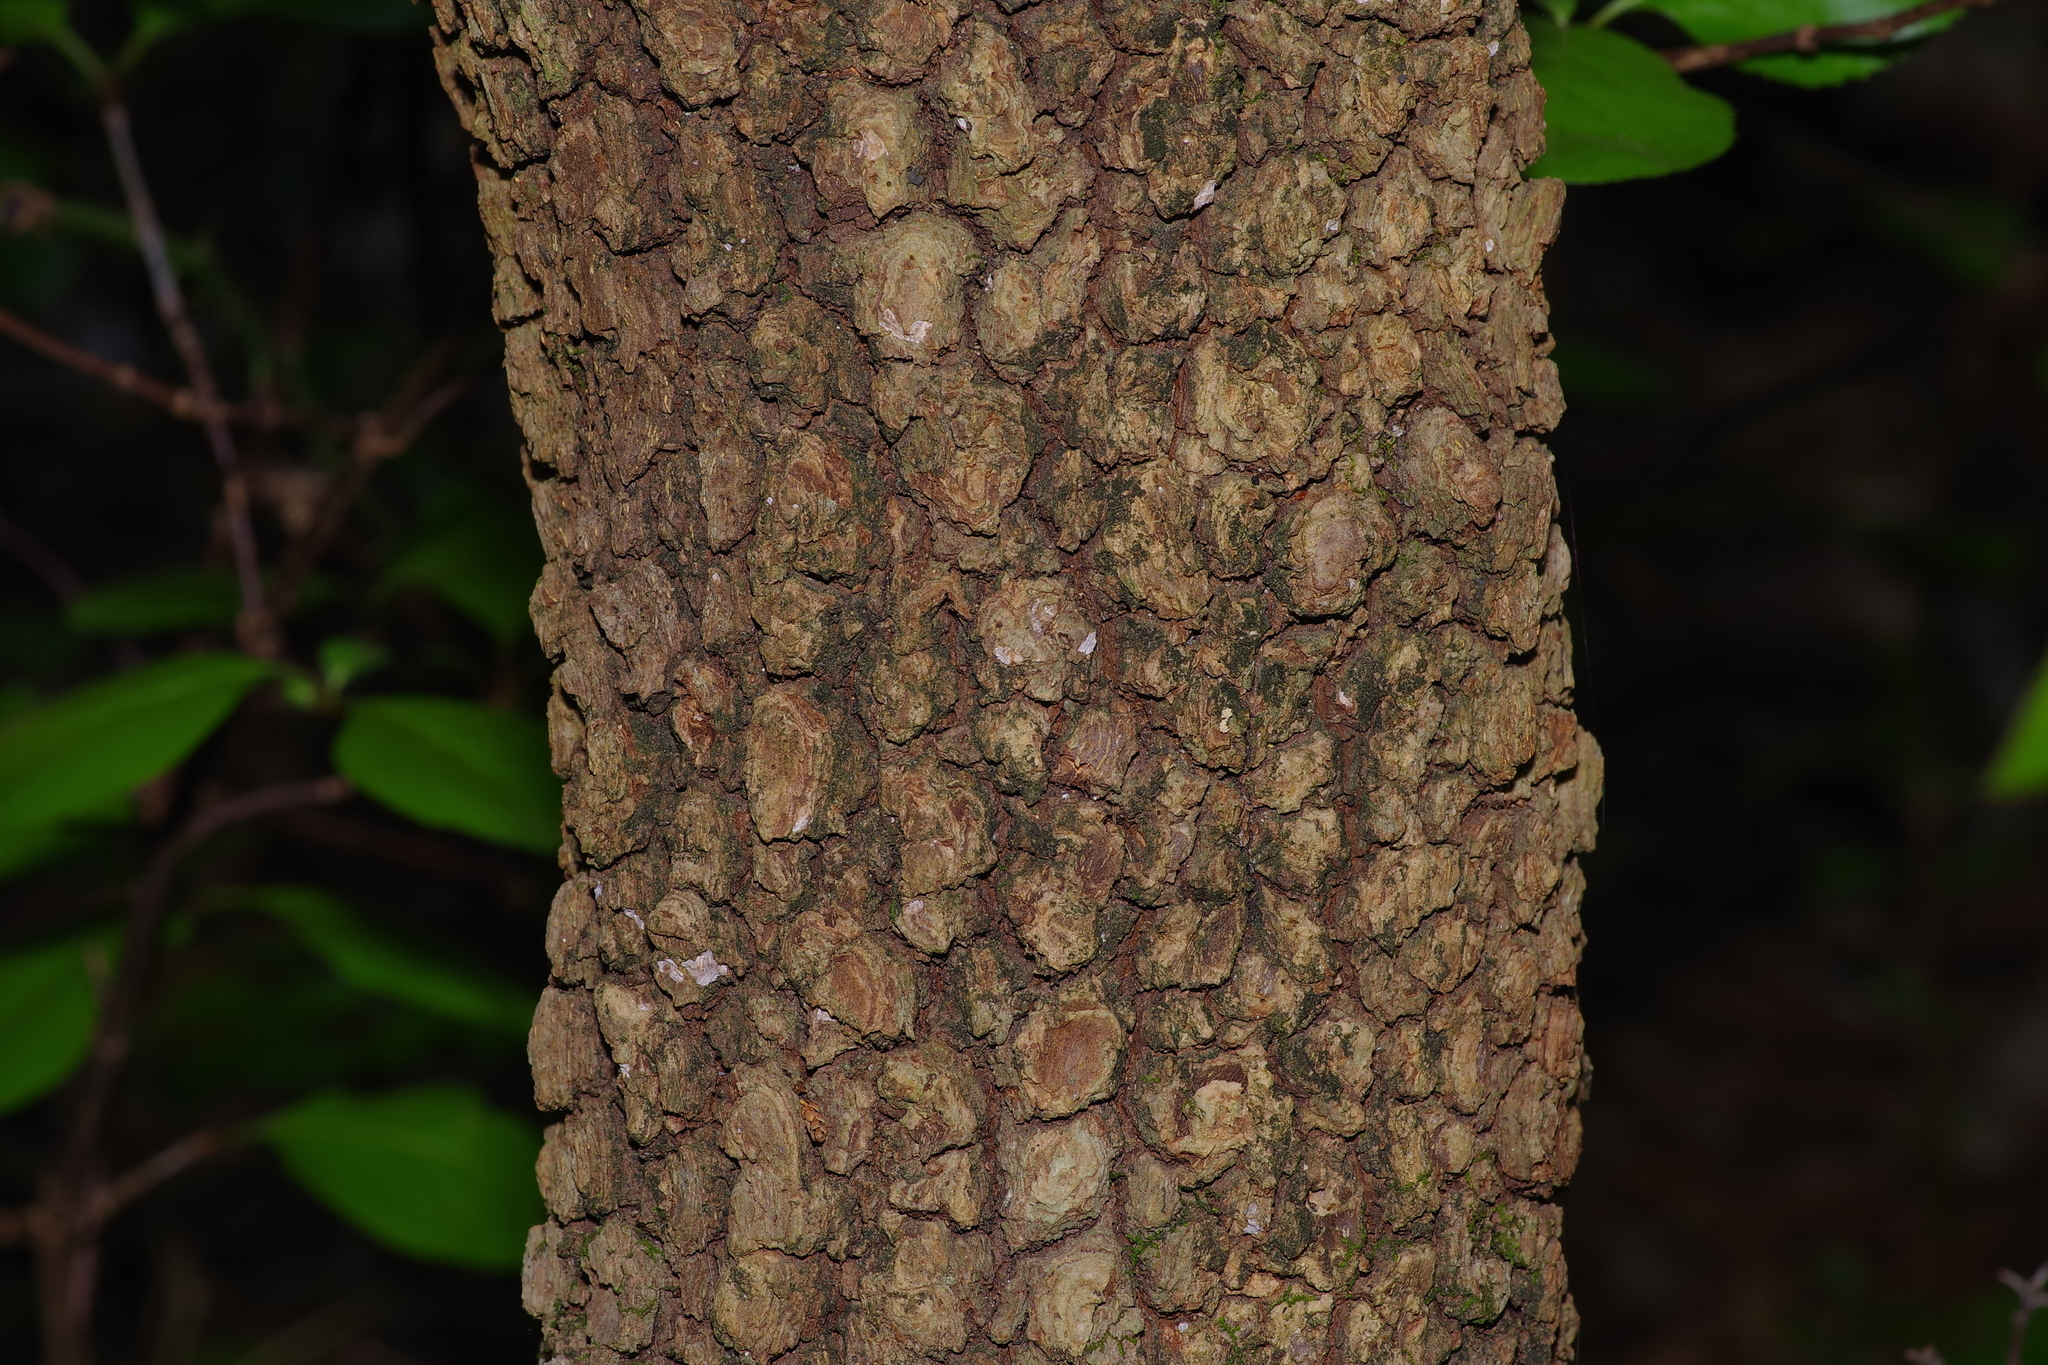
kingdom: Plantae
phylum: Tracheophyta
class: Magnoliopsida
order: Dipsacales
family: Viburnaceae
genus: Viburnum
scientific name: Viburnum rufidulum
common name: Blue haw
